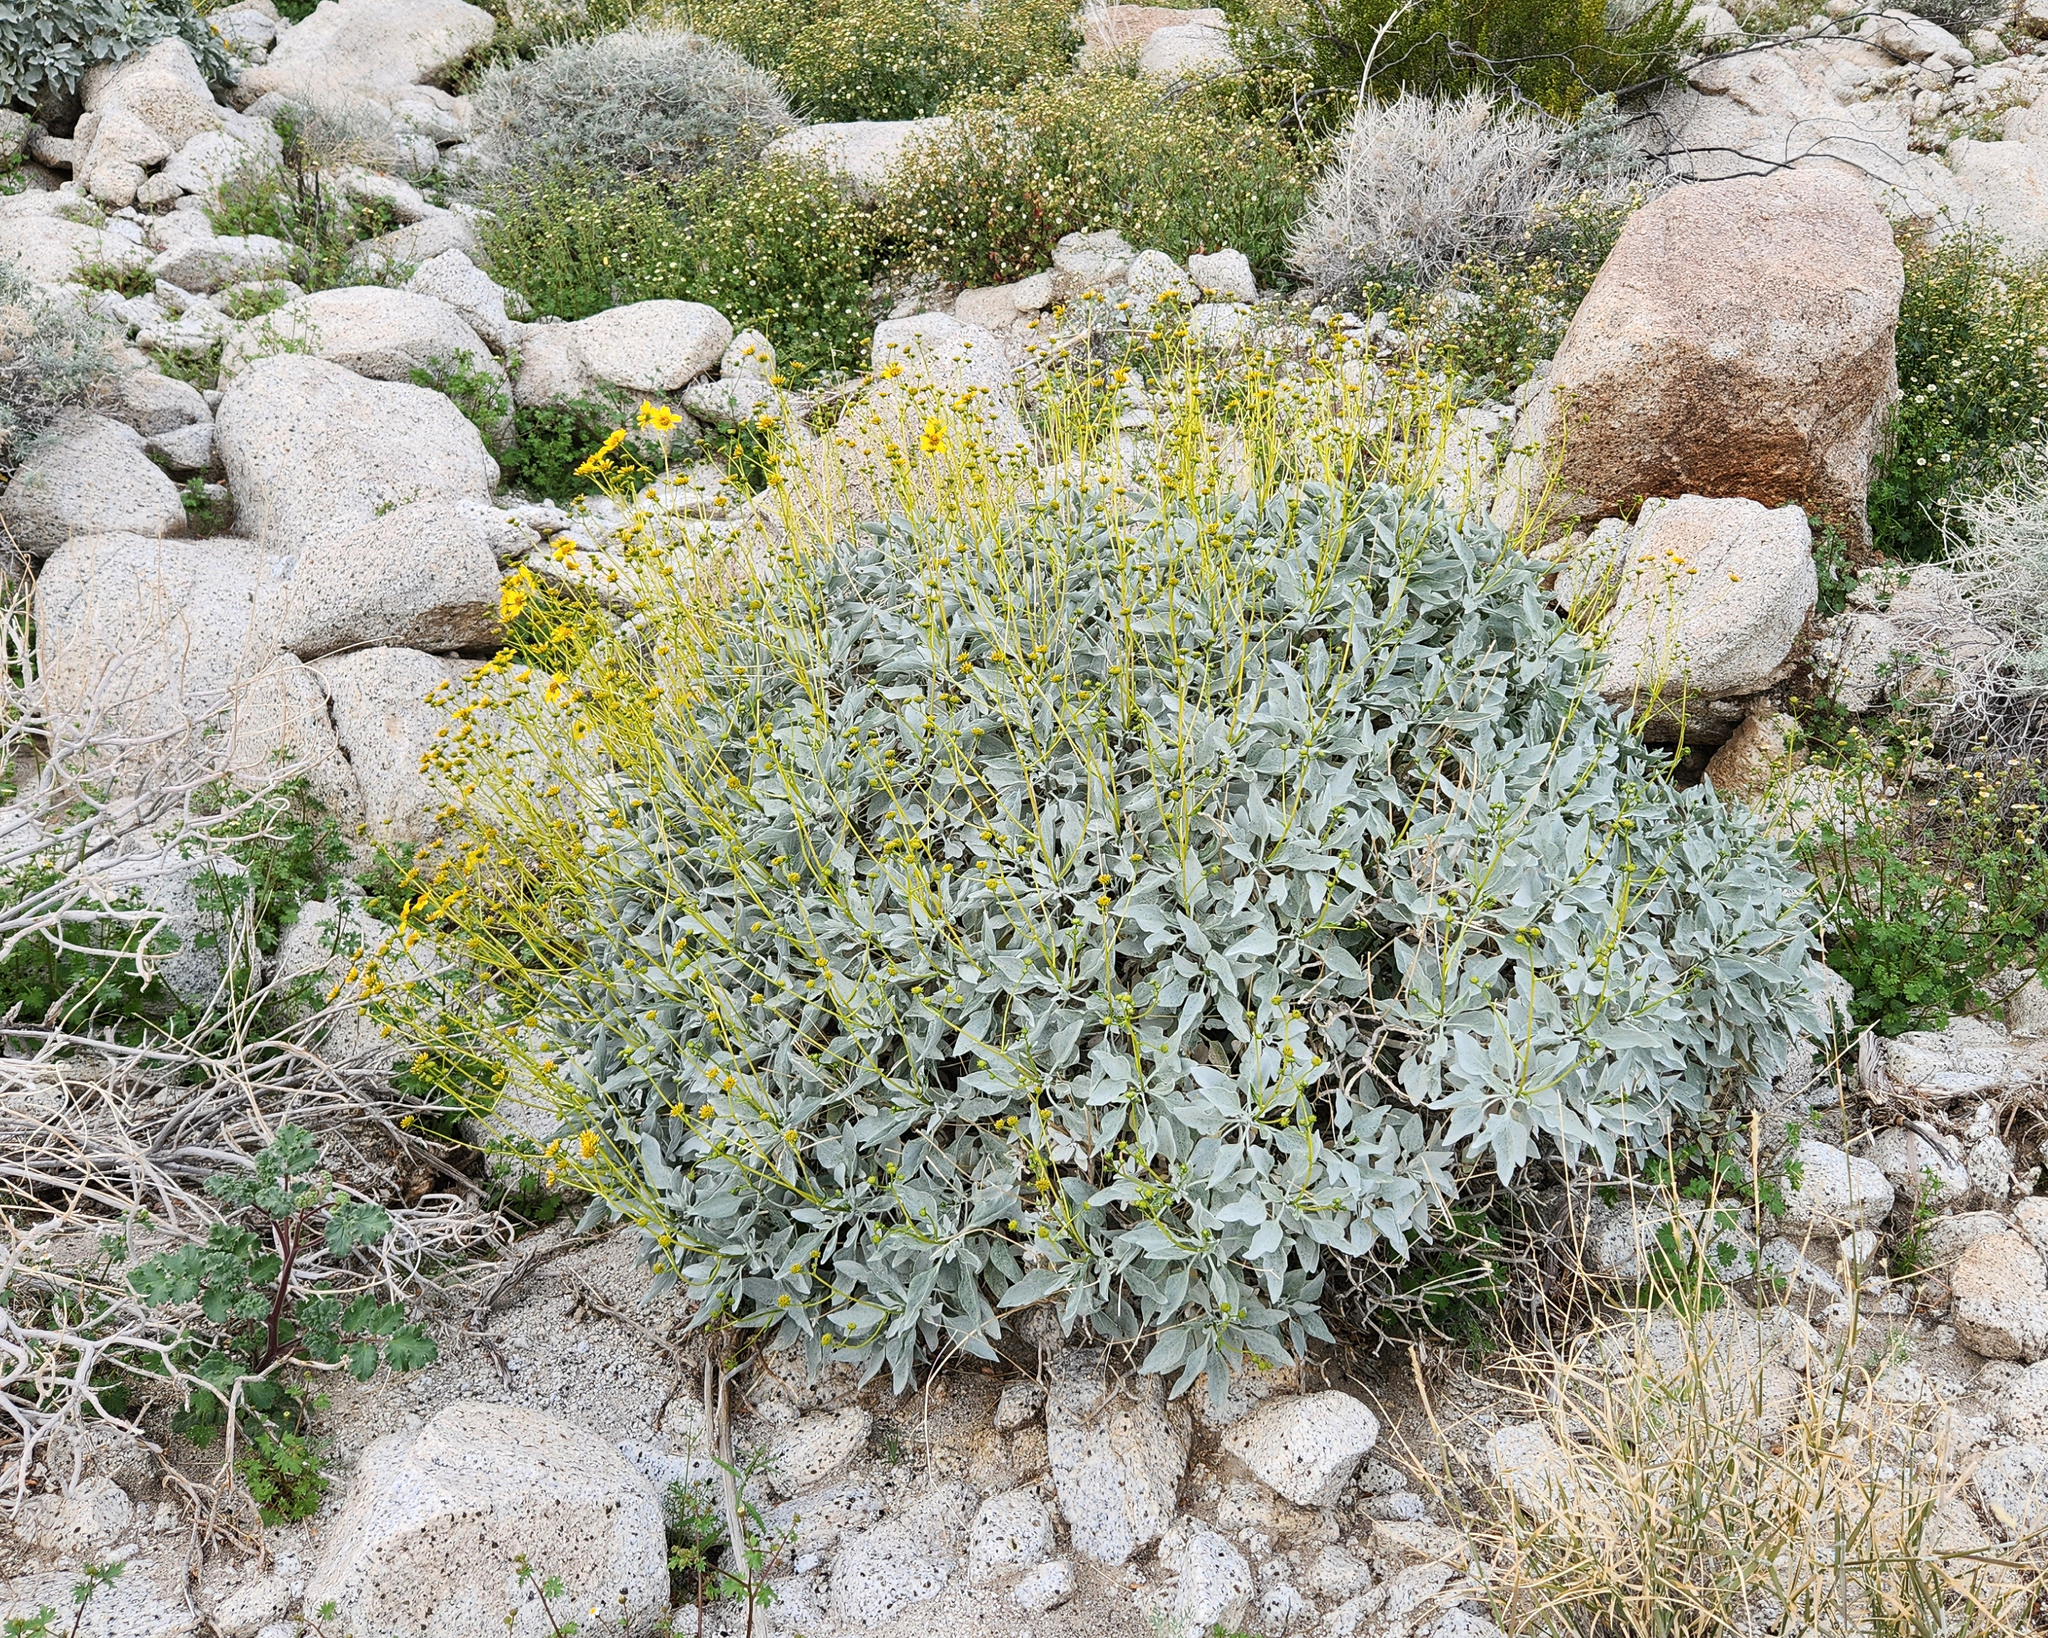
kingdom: Plantae
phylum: Tracheophyta
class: Magnoliopsida
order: Asterales
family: Asteraceae
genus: Encelia
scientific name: Encelia farinosa
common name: Brittlebush
